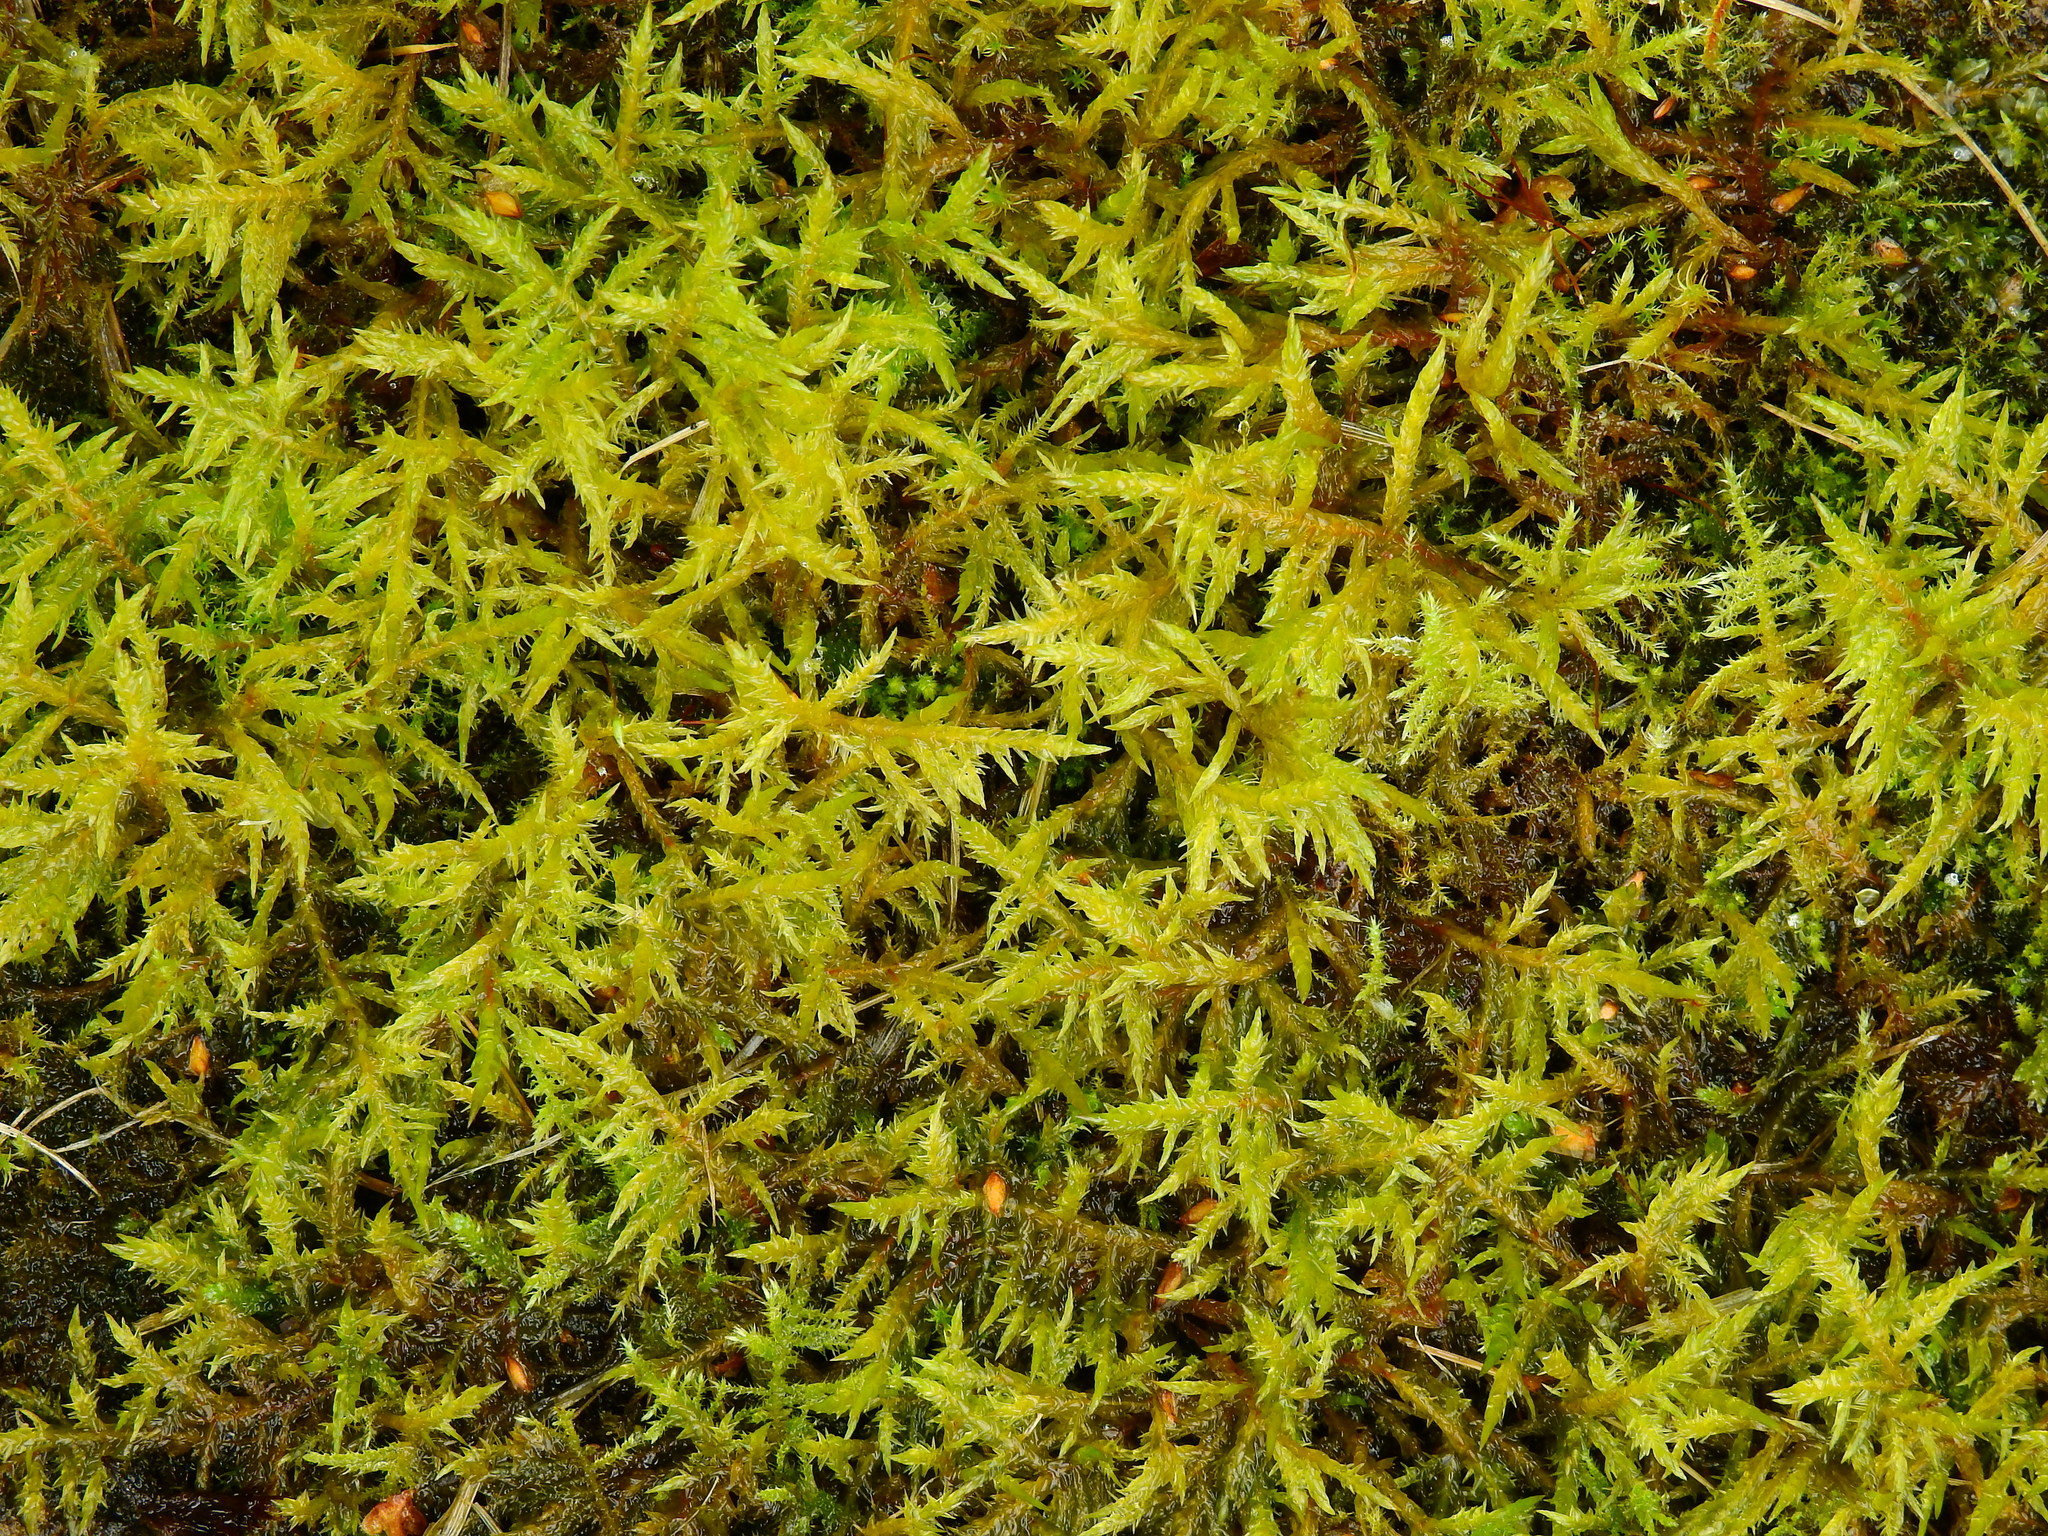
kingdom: Plantae
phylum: Bryophyta
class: Bryopsida
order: Hypnales
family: Pylaisiaceae
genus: Calliergonella
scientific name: Calliergonella cuspidata
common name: Common large wetland moss
